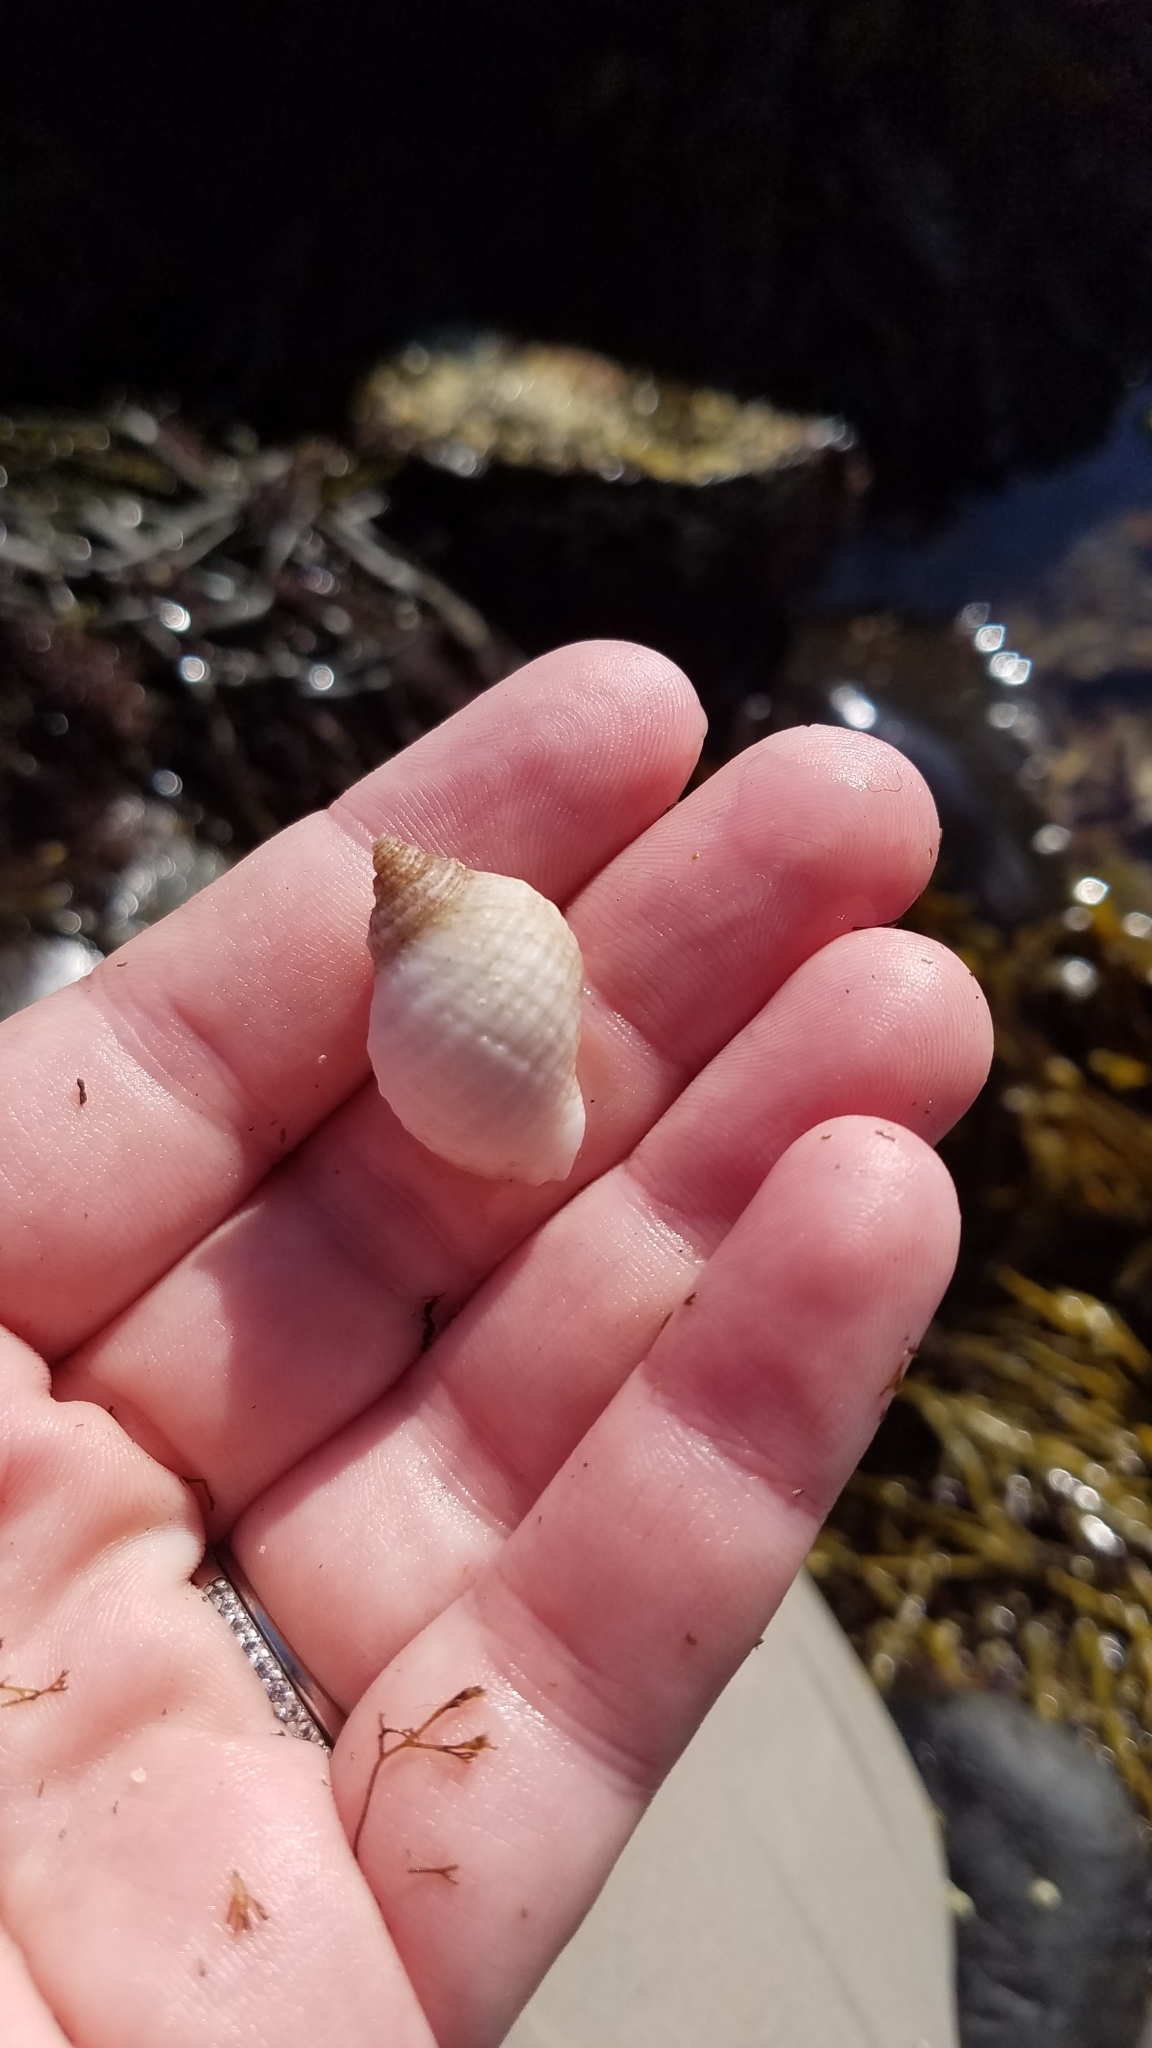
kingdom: Animalia
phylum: Mollusca
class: Gastropoda
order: Neogastropoda
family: Muricidae
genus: Nucella
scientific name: Nucella lapillus
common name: Dog whelk
